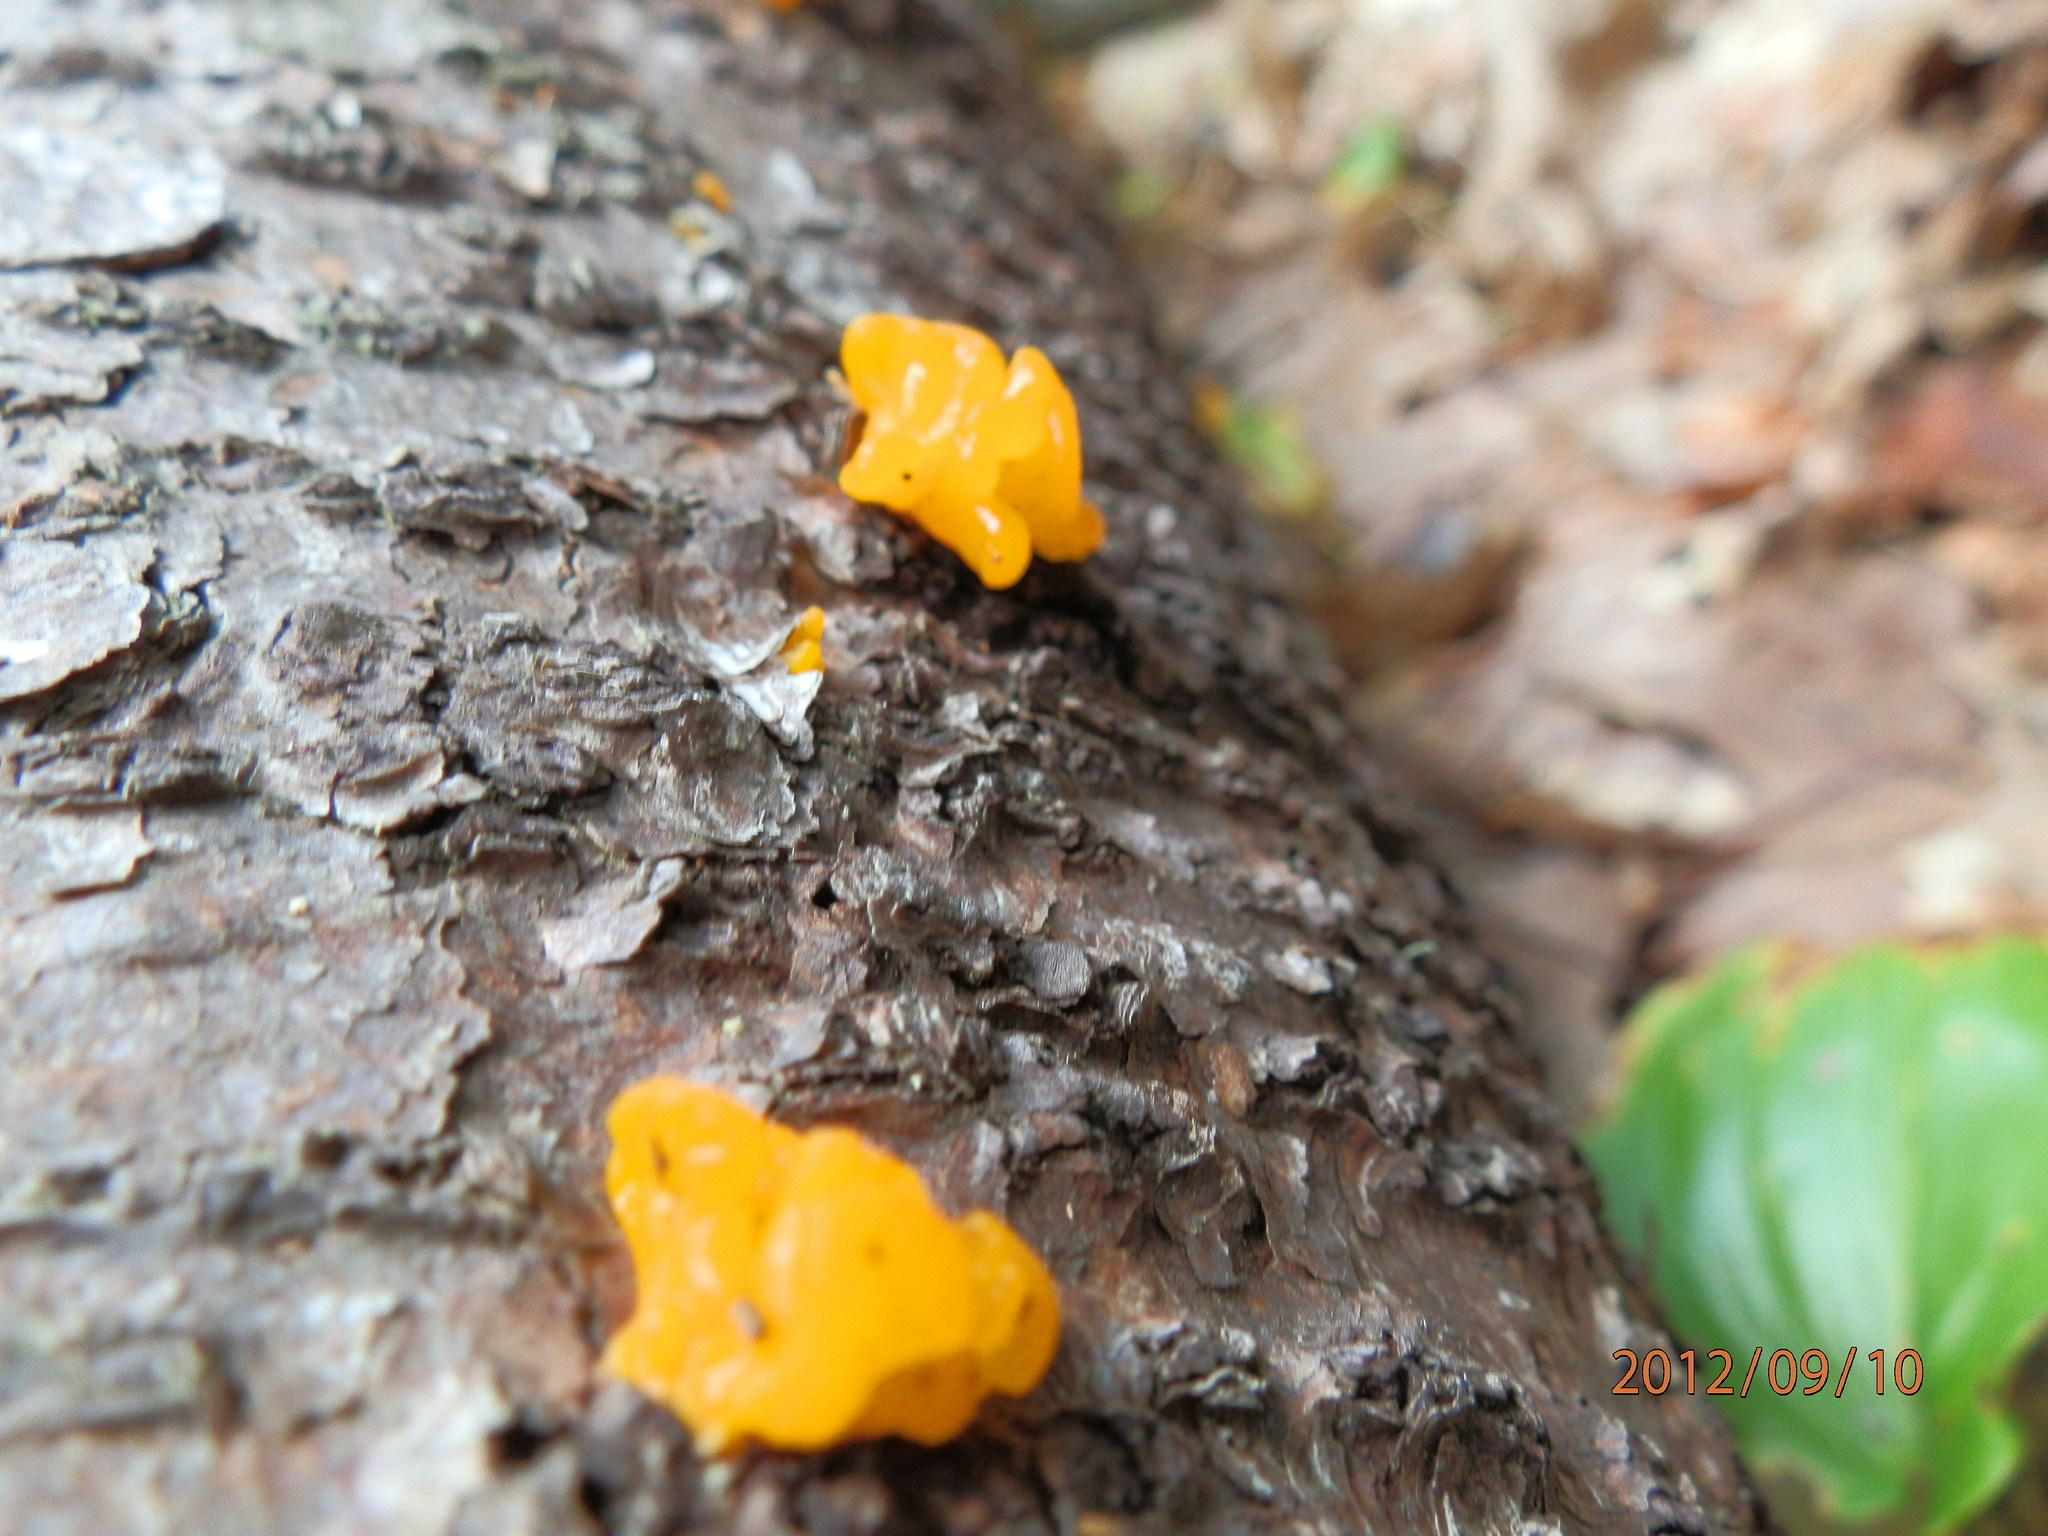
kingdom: Fungi
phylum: Basidiomycota
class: Dacrymycetes
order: Dacrymycetales
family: Dacrymycetaceae
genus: Dacrymyces
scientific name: Dacrymyces chrysospermus
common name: Orange jelly spot
